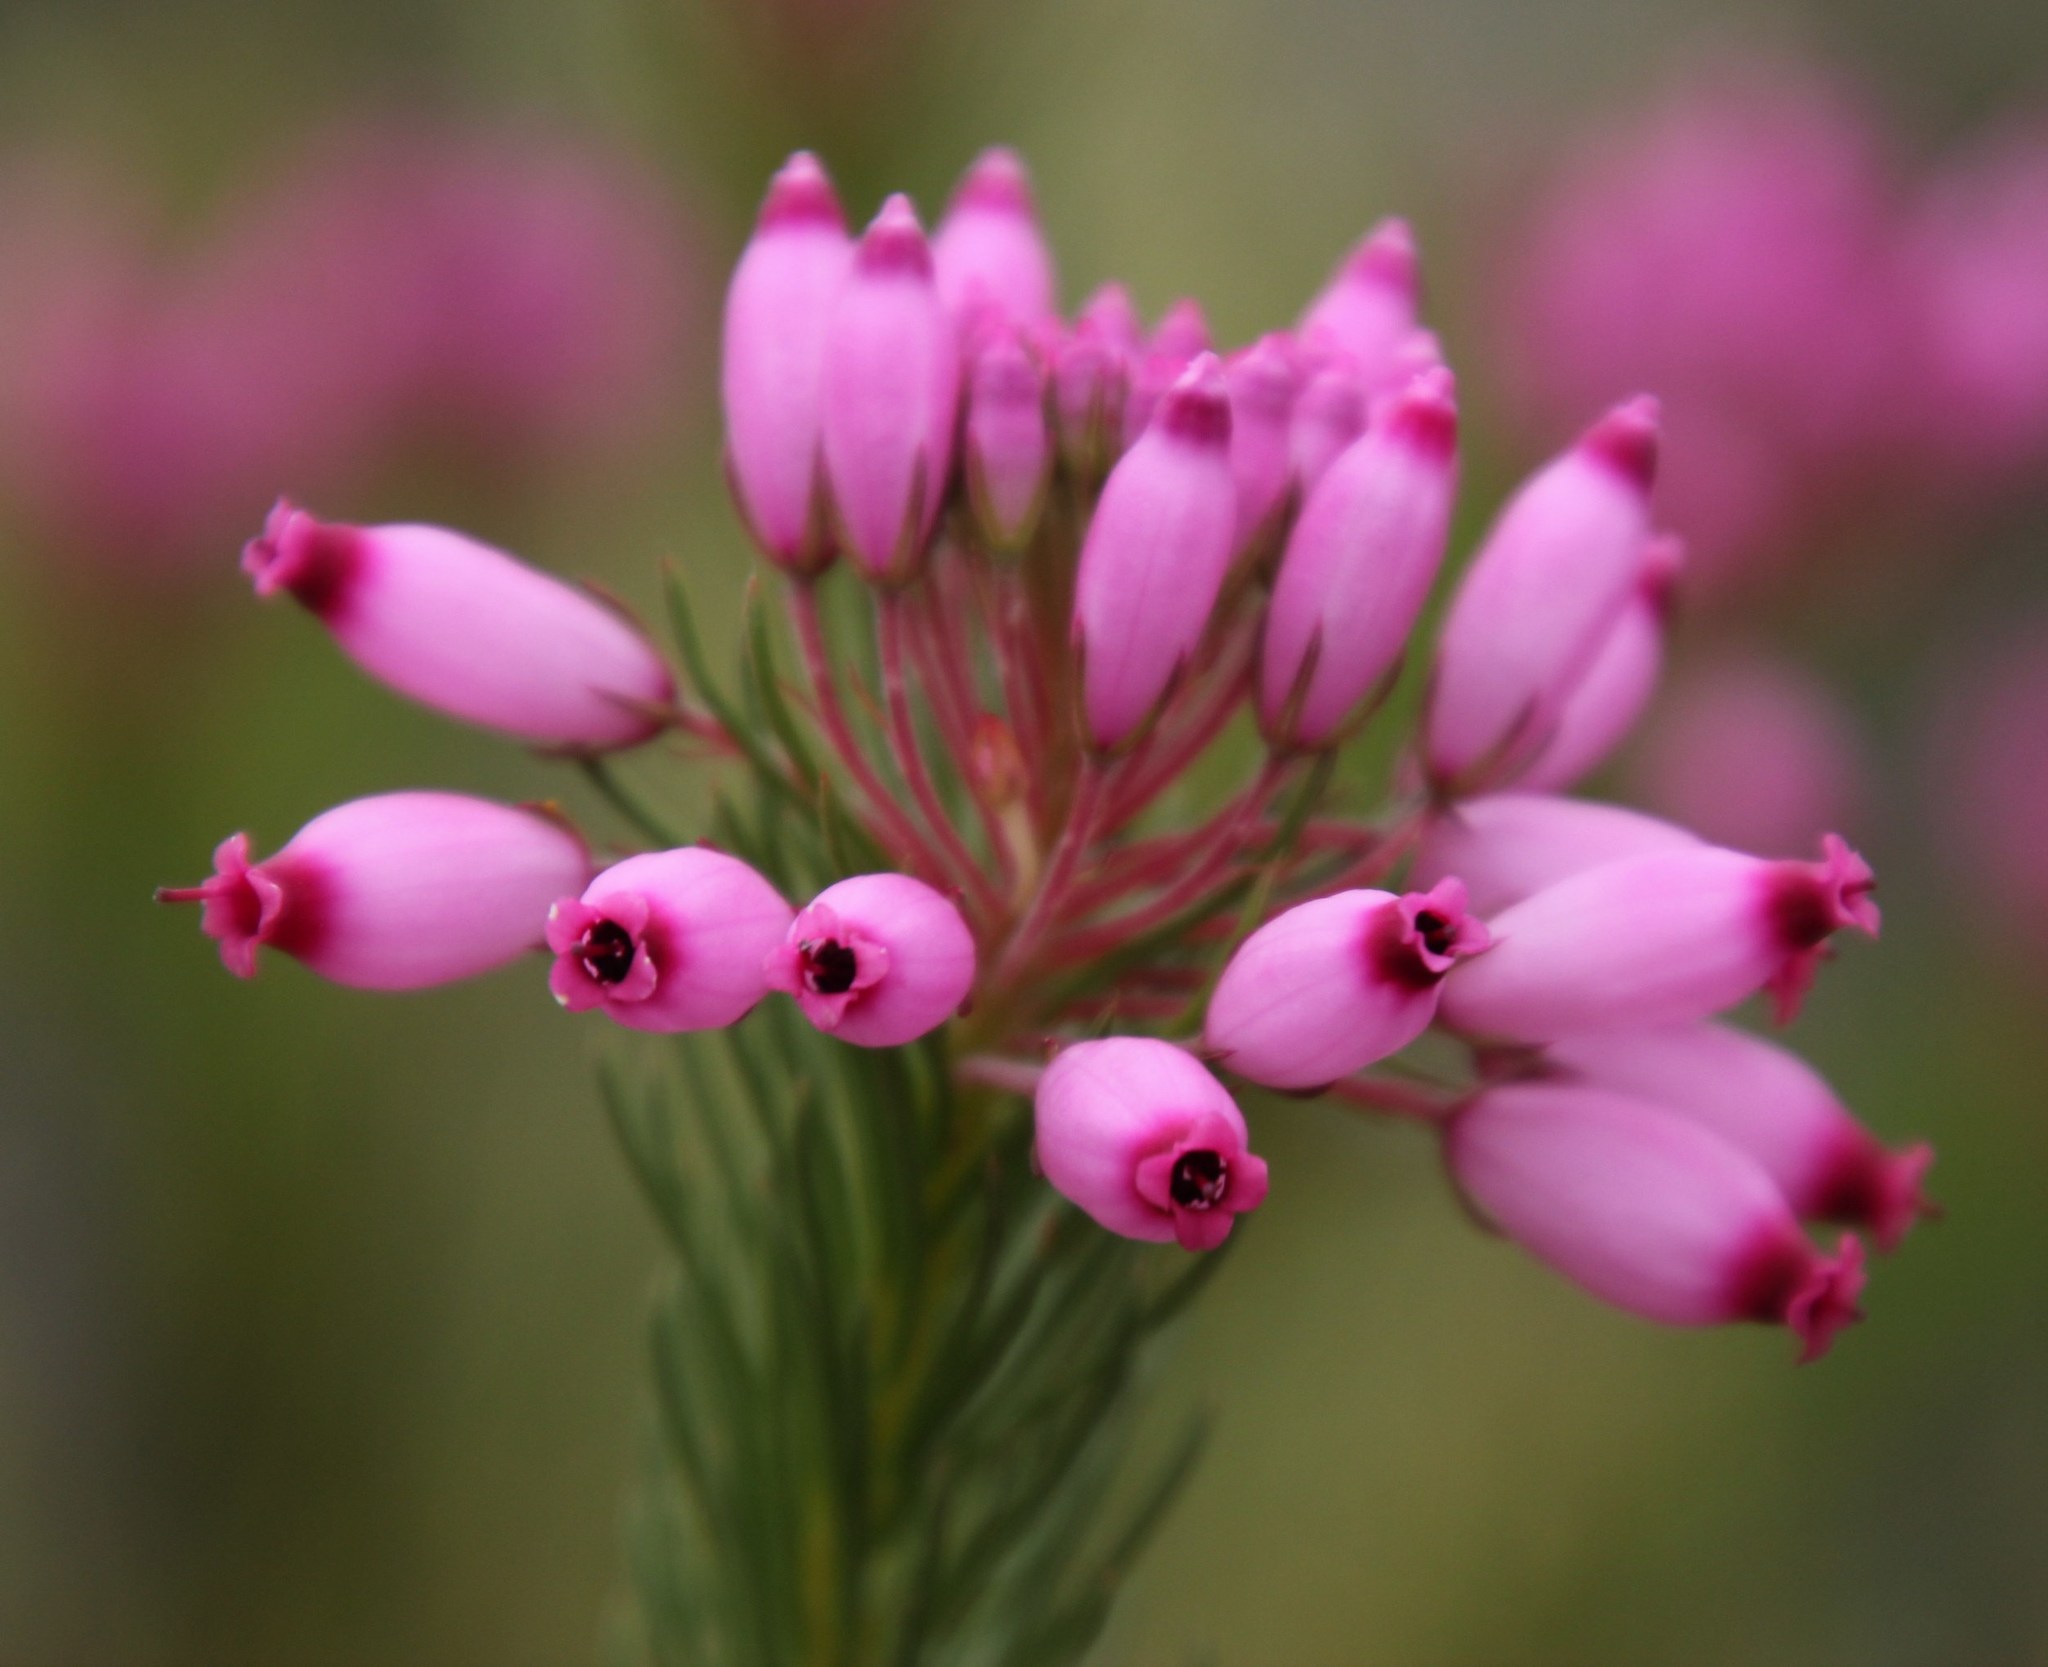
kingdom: Plantae
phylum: Tracheophyta
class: Magnoliopsida
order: Ericales
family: Ericaceae
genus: Erica
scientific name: Erica inflata
